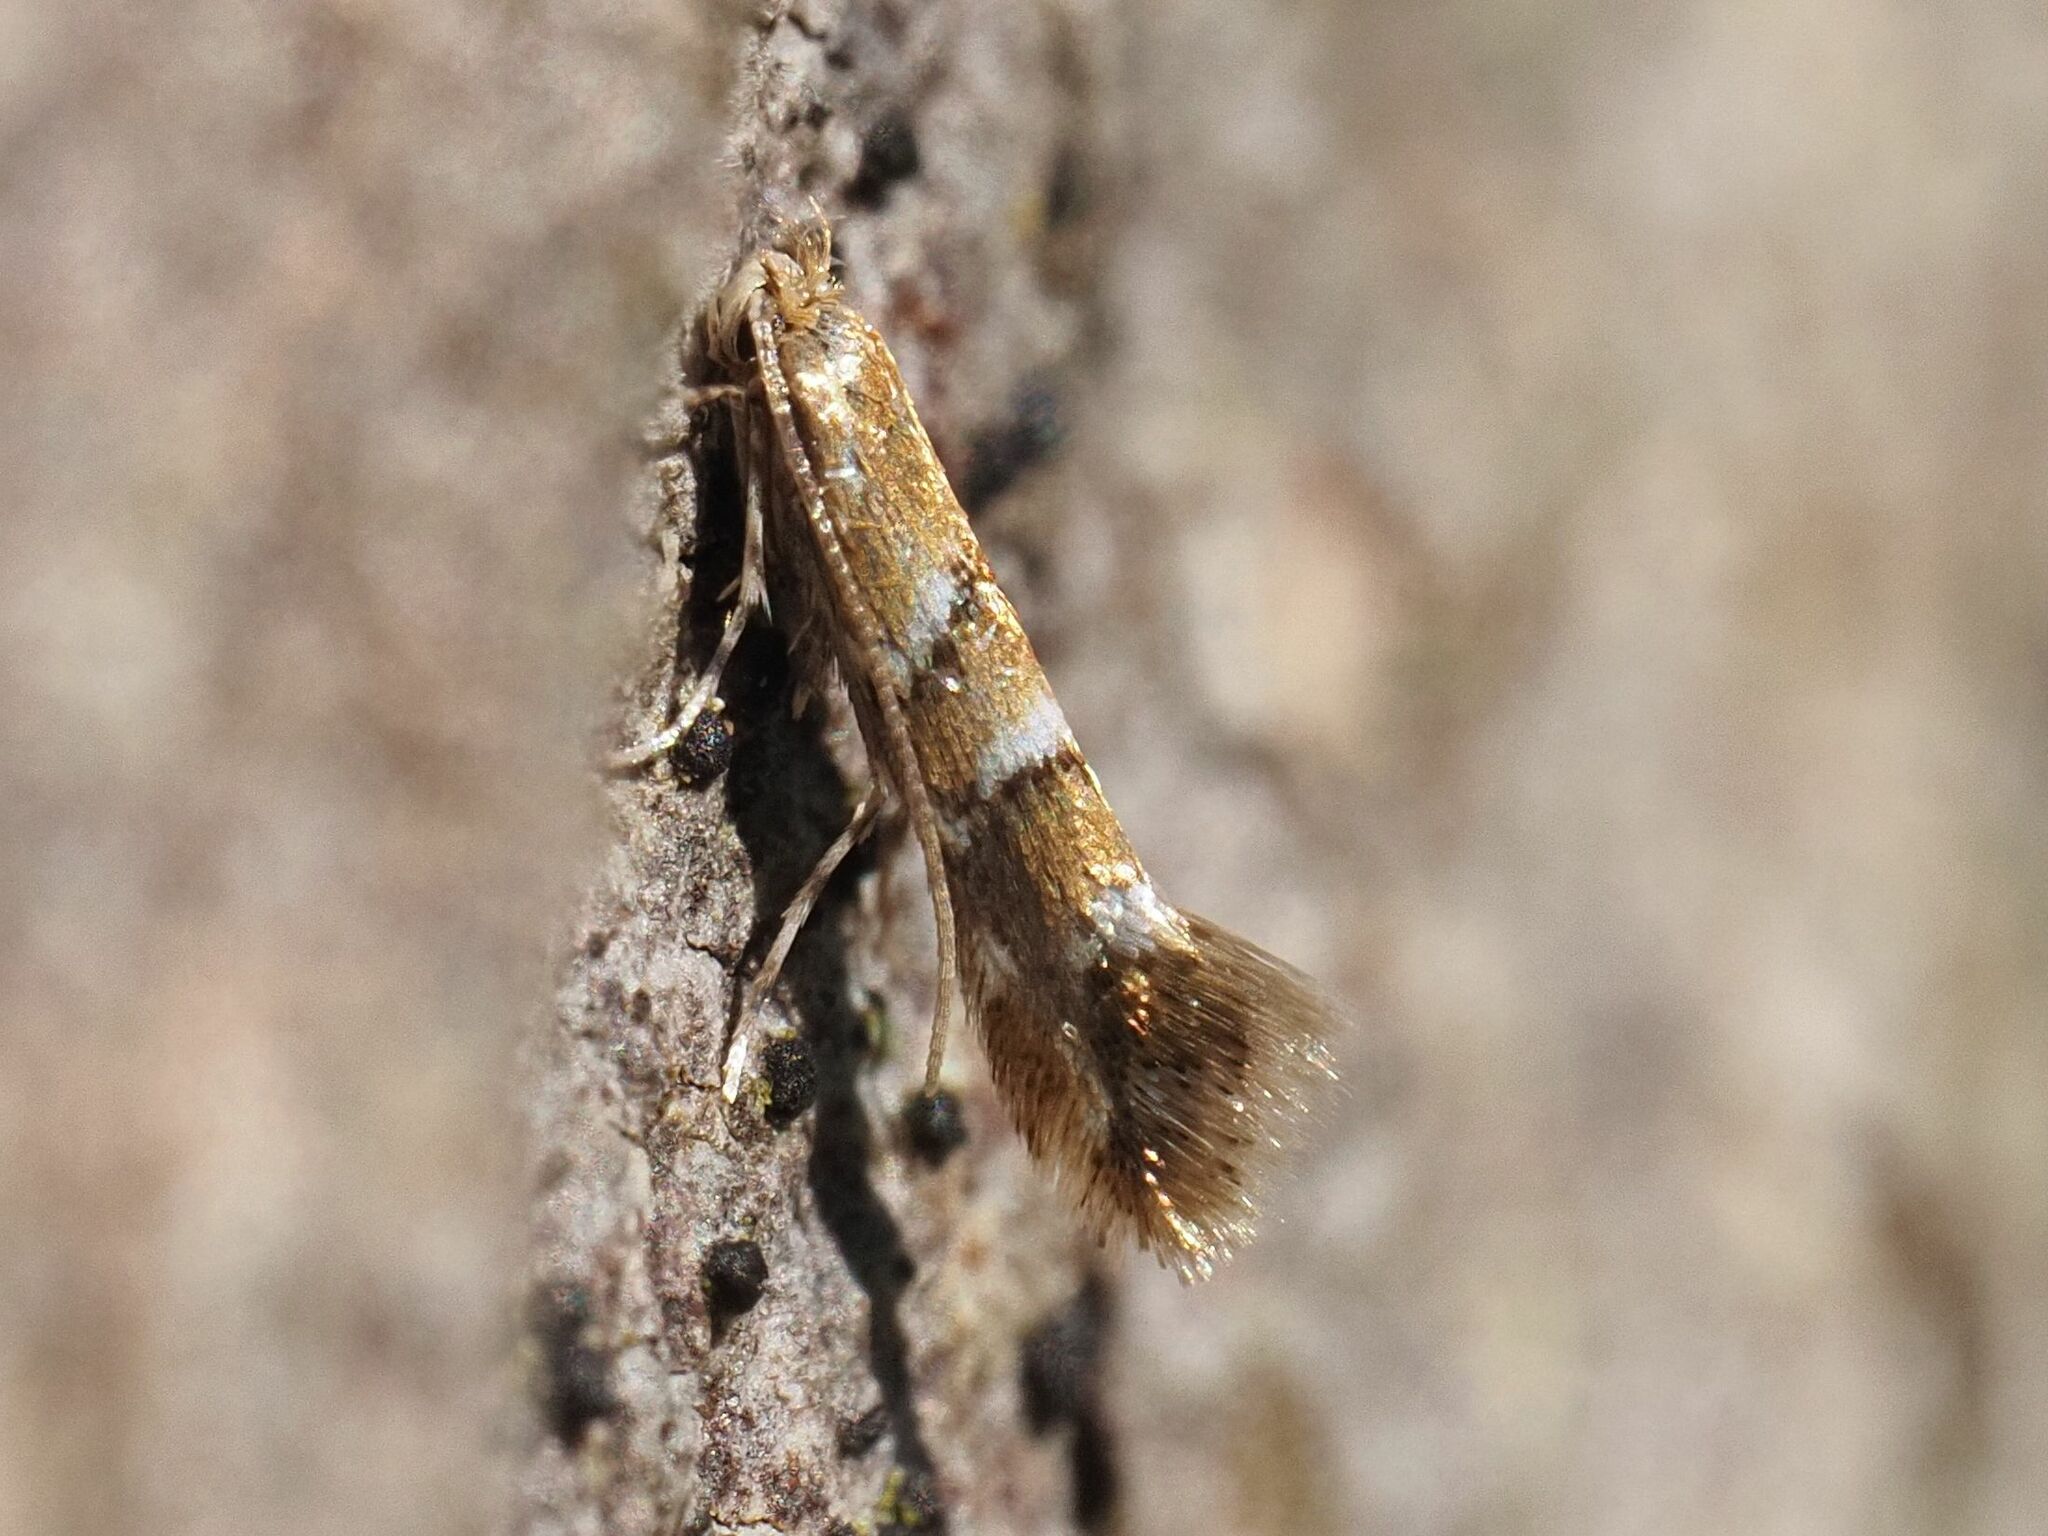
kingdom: Animalia
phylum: Arthropoda
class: Insecta
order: Lepidoptera
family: Gracillariidae
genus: Cameraria
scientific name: Cameraria ohridella
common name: Horse-chestnut leaf-miner
